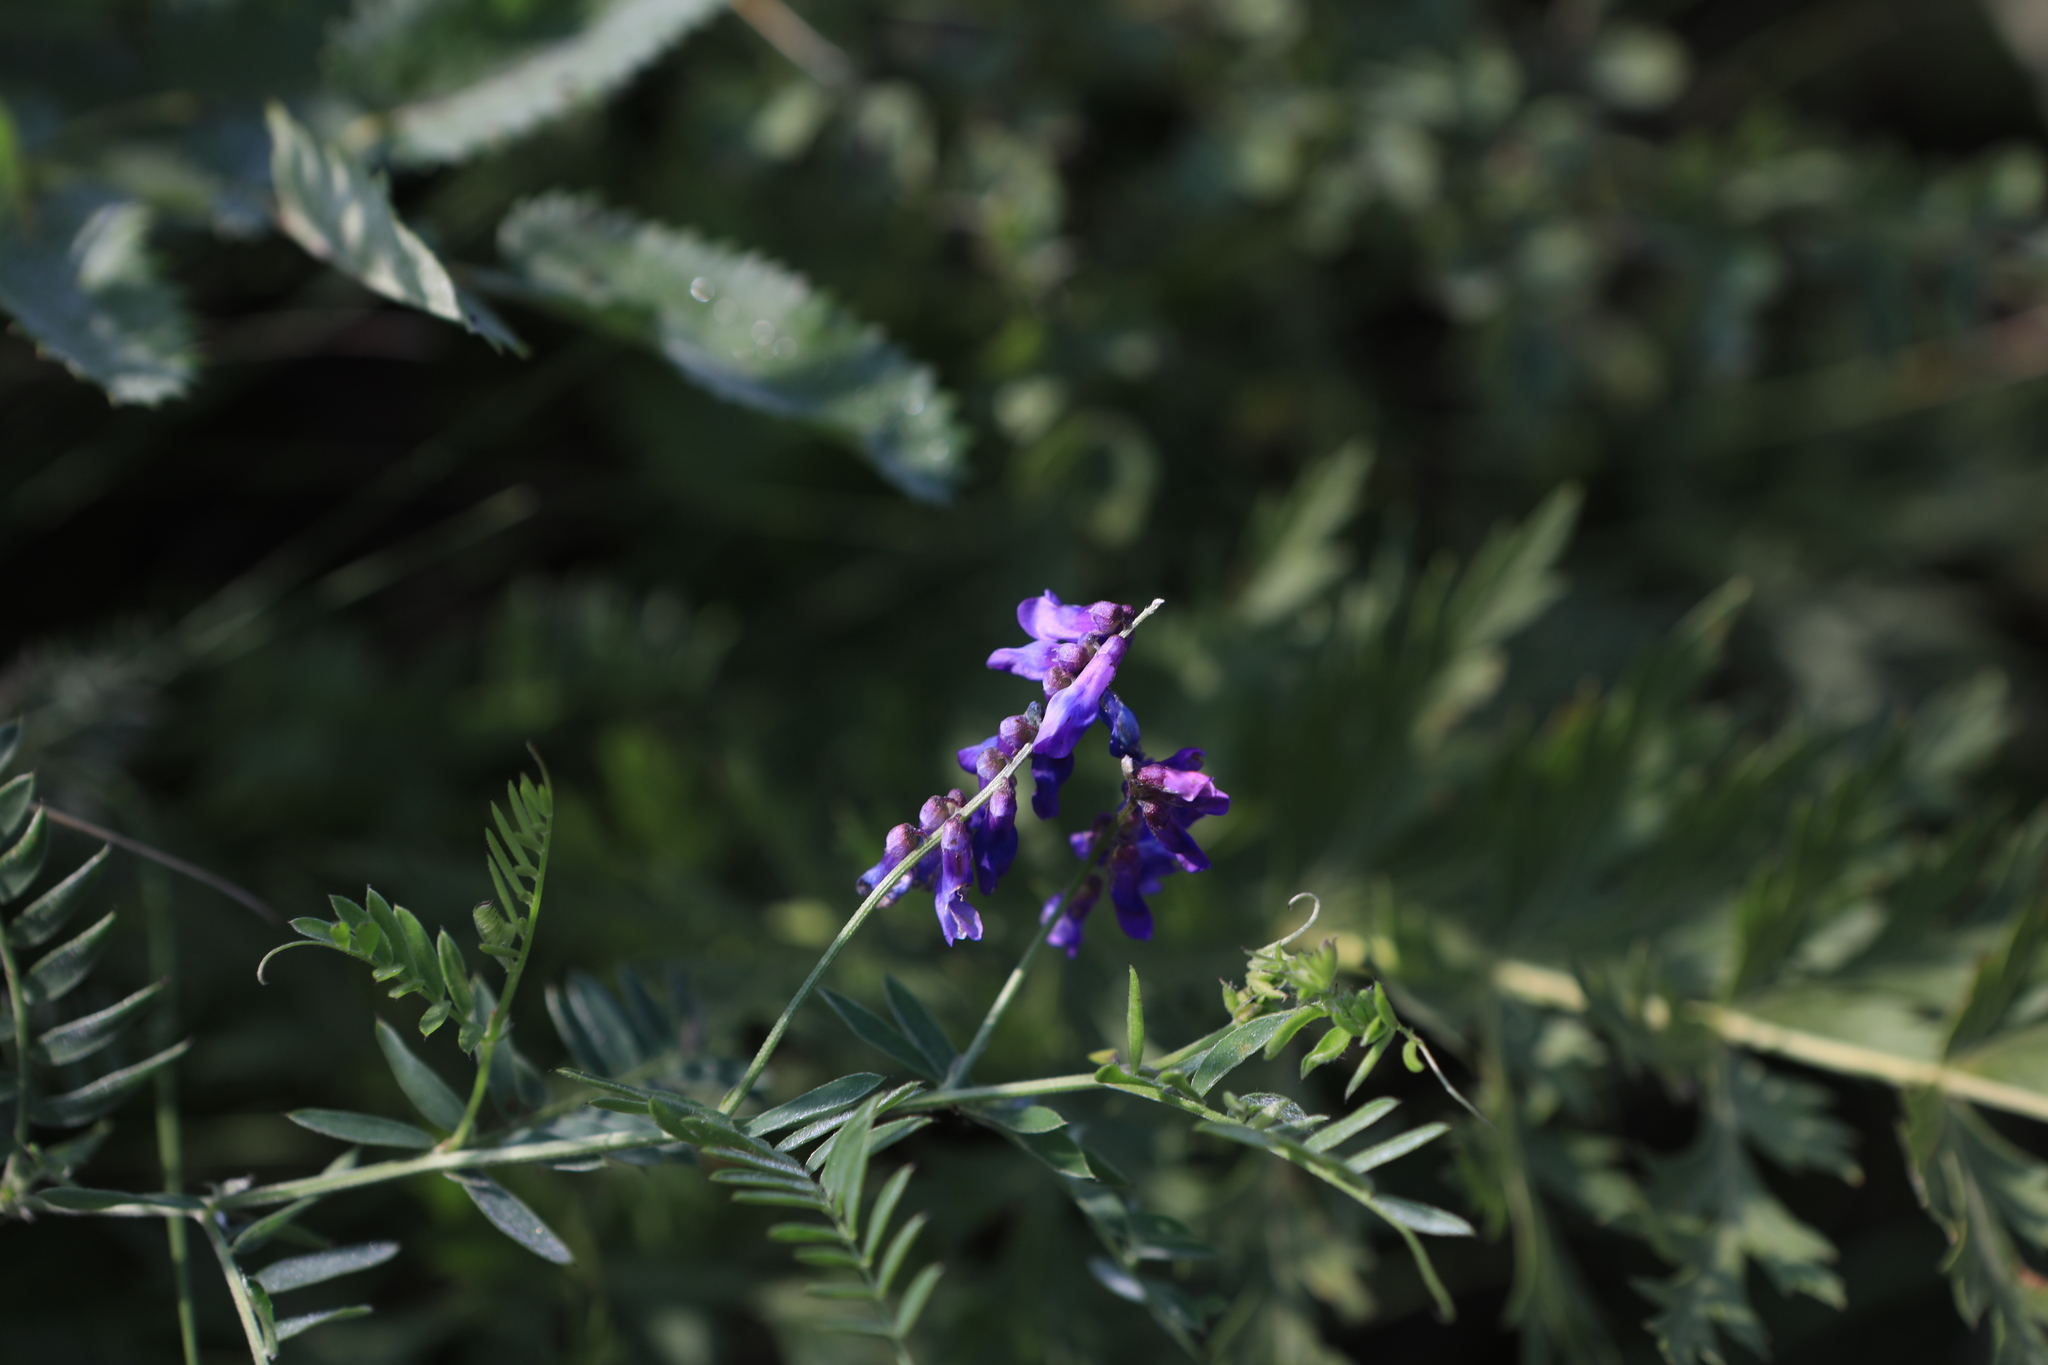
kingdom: Plantae
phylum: Tracheophyta
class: Magnoliopsida
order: Fabales
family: Fabaceae
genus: Vicia
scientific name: Vicia cracca
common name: Bird vetch
